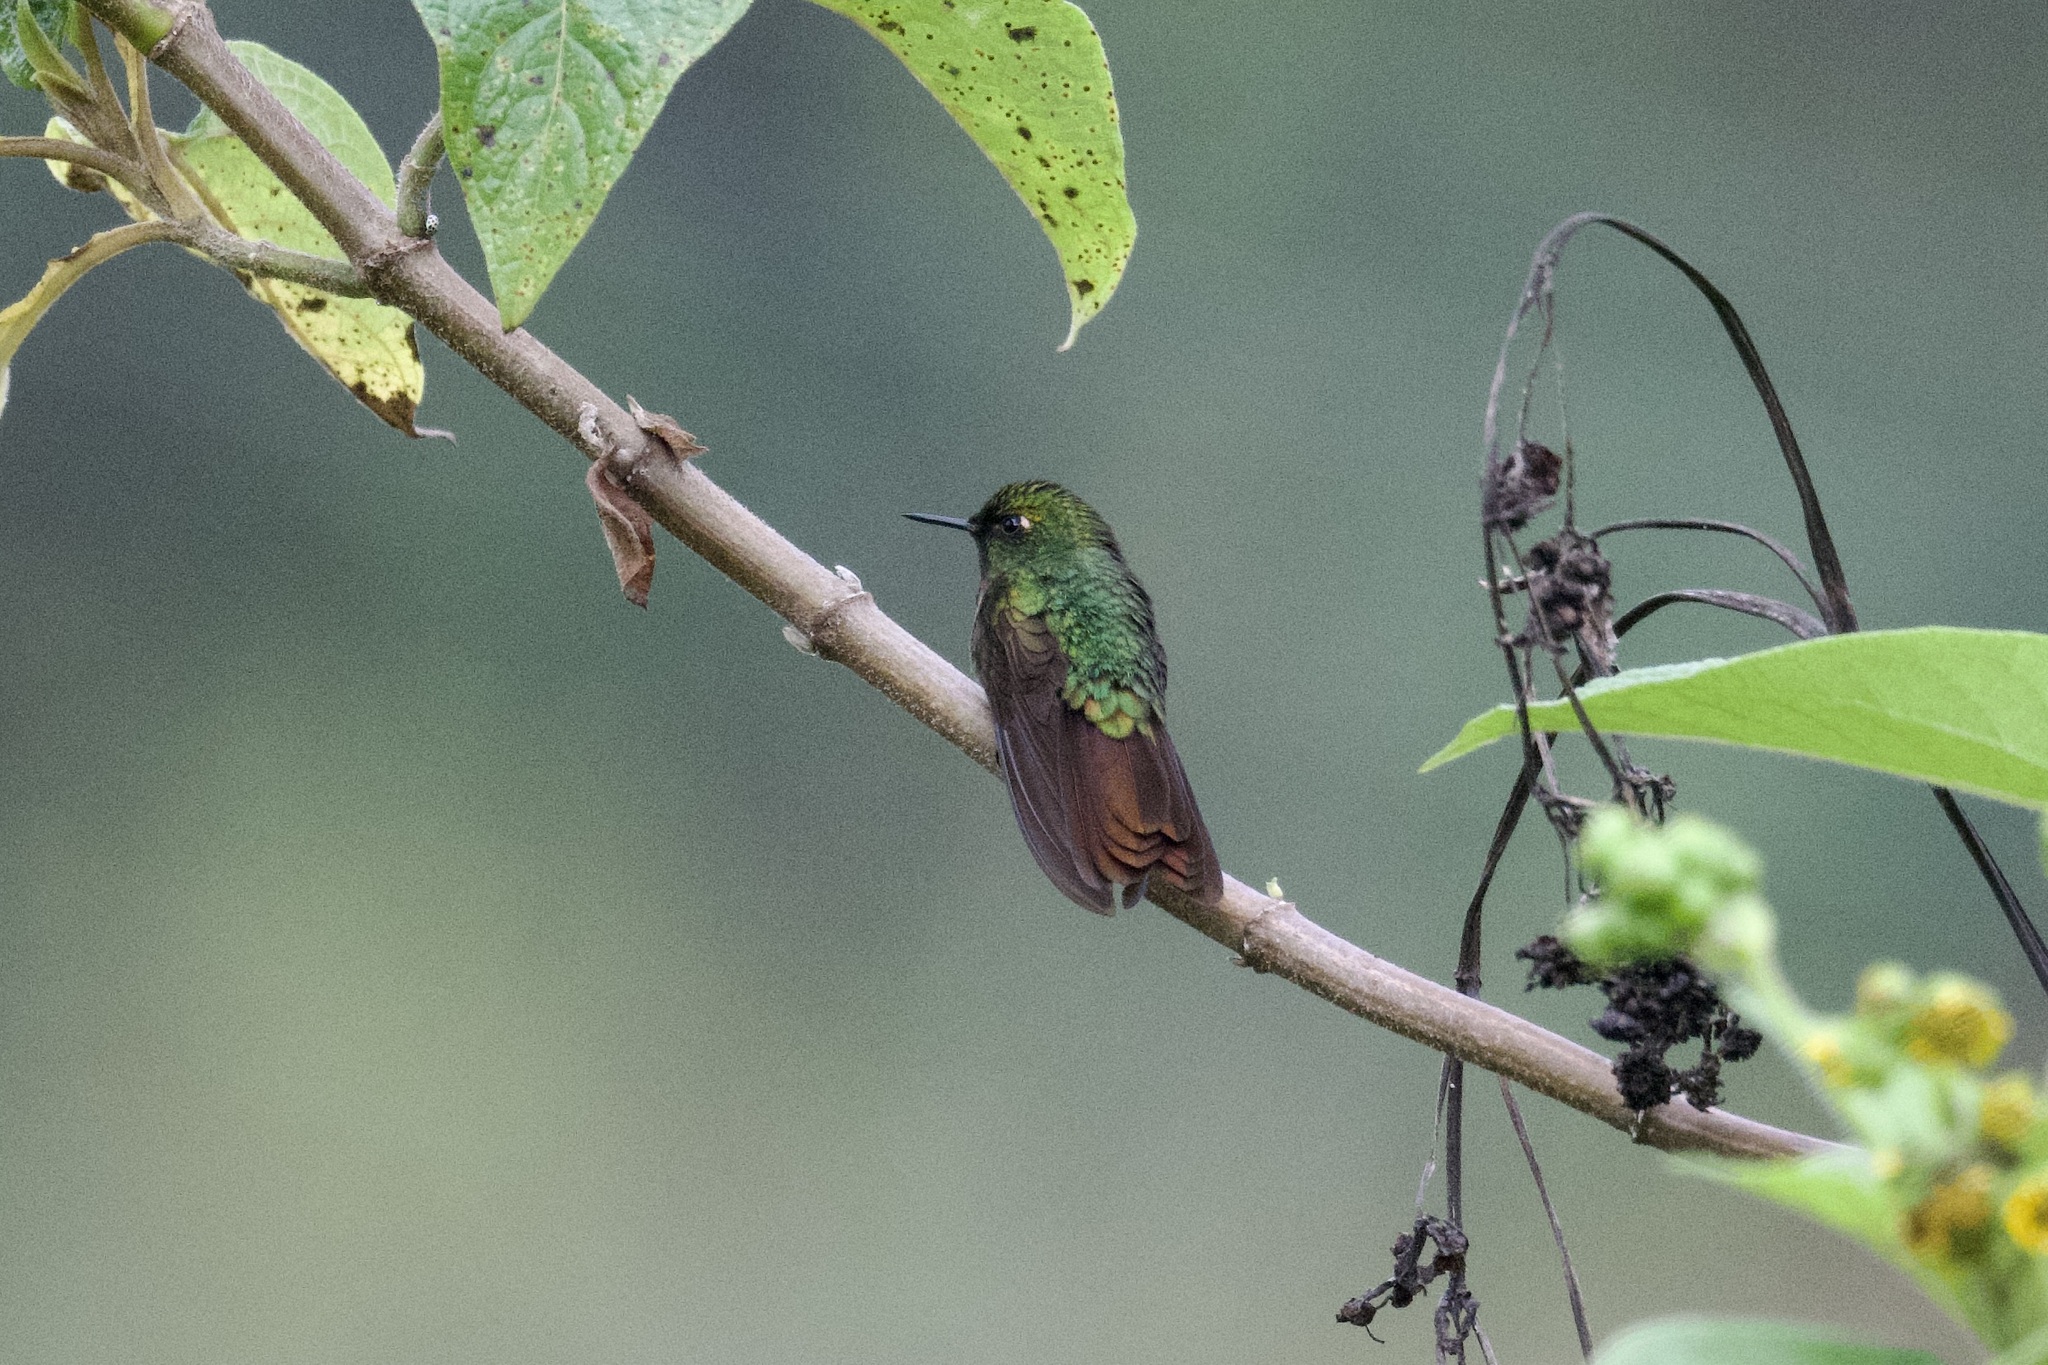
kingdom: Animalia
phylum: Chordata
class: Aves
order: Apodiformes
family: Trochilidae
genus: Metallura
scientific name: Metallura tyrianthina
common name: Tyrian metaltail
